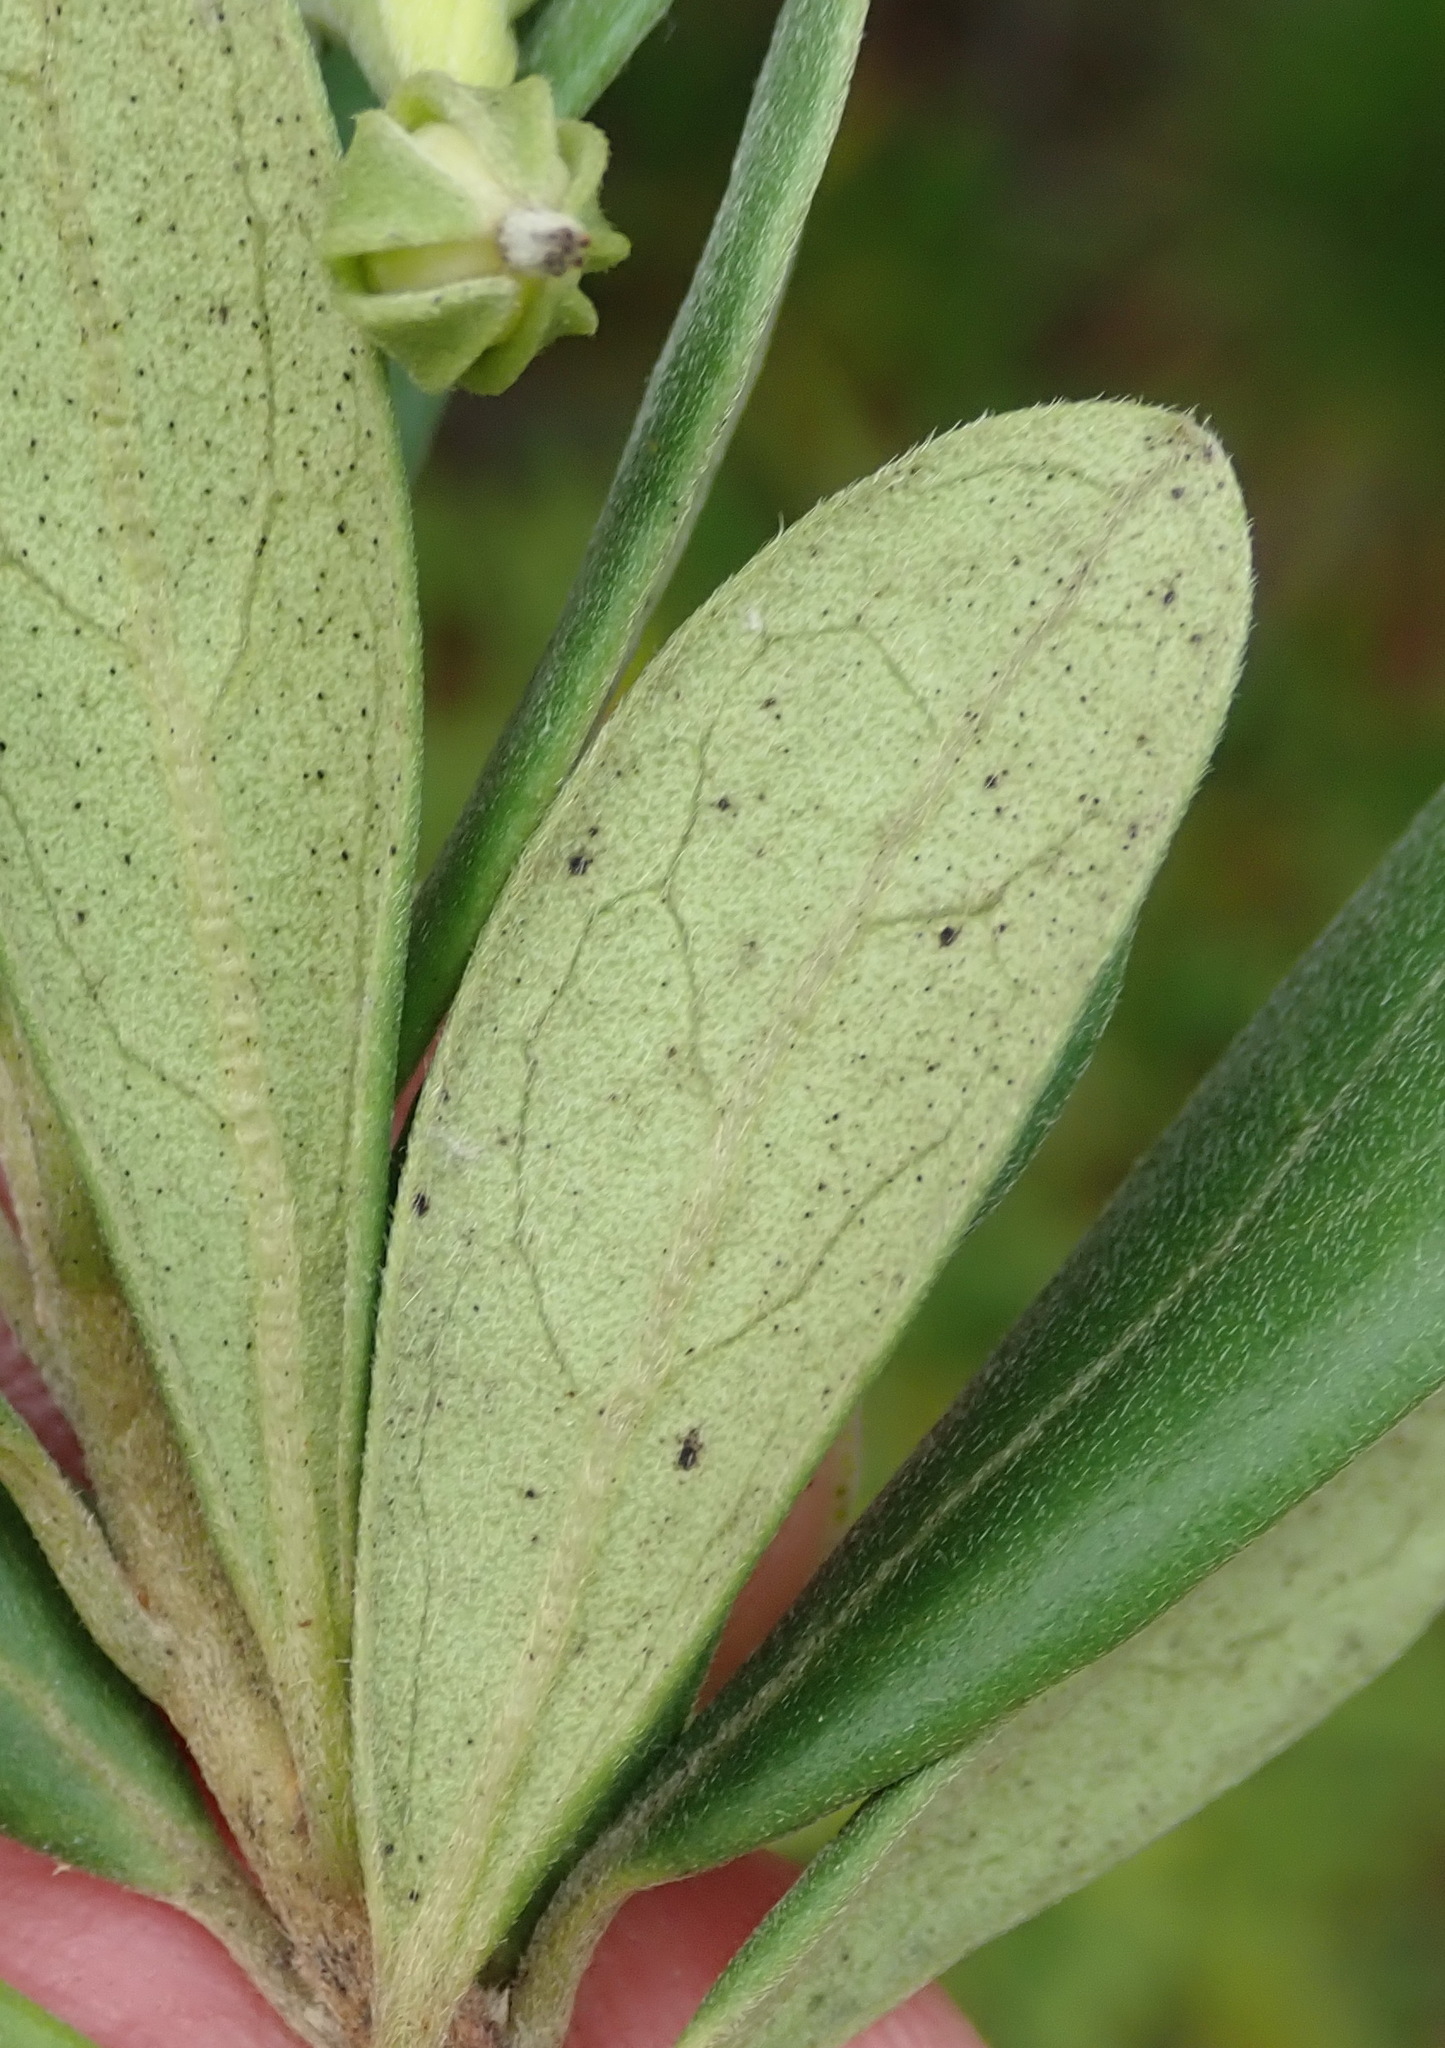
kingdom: Plantae
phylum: Tracheophyta
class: Magnoliopsida
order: Ericales
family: Ebenaceae
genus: Diospyros
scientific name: Diospyros dichrophylla
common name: Common star-apple
